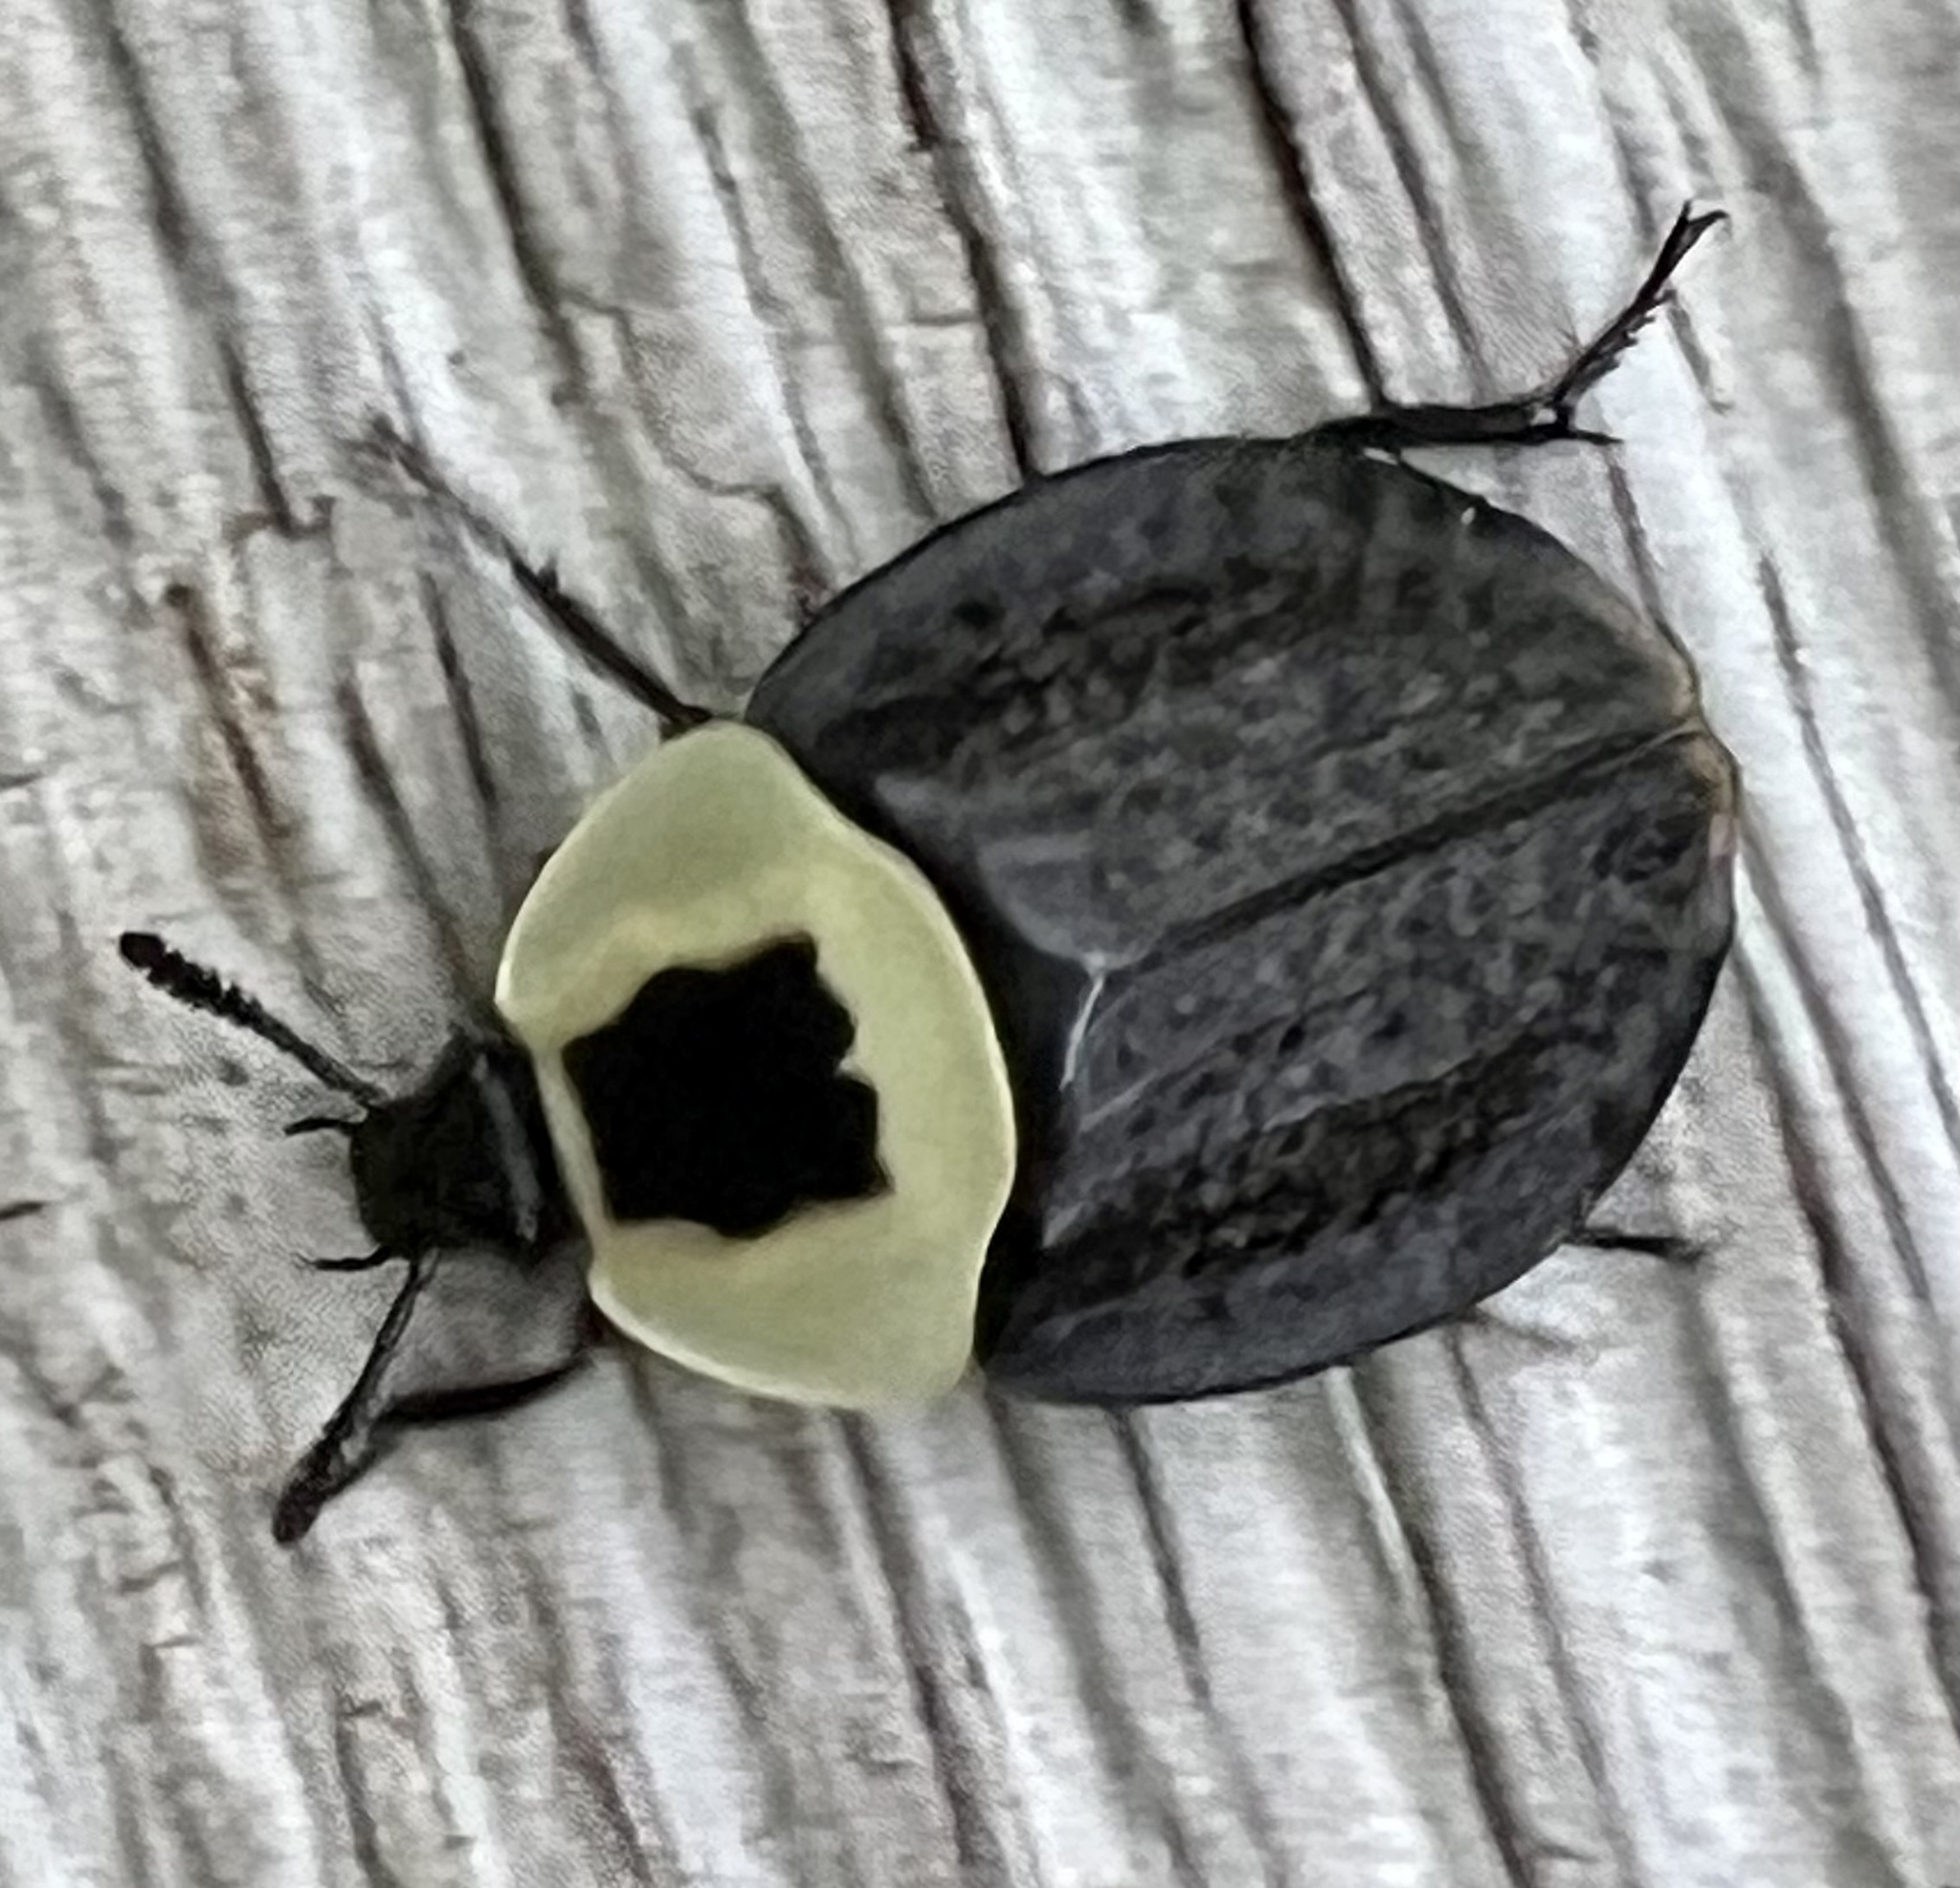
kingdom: Animalia
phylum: Arthropoda
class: Insecta
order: Coleoptera
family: Staphylinidae
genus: Necrophila
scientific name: Necrophila americana
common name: American carrion beetle
